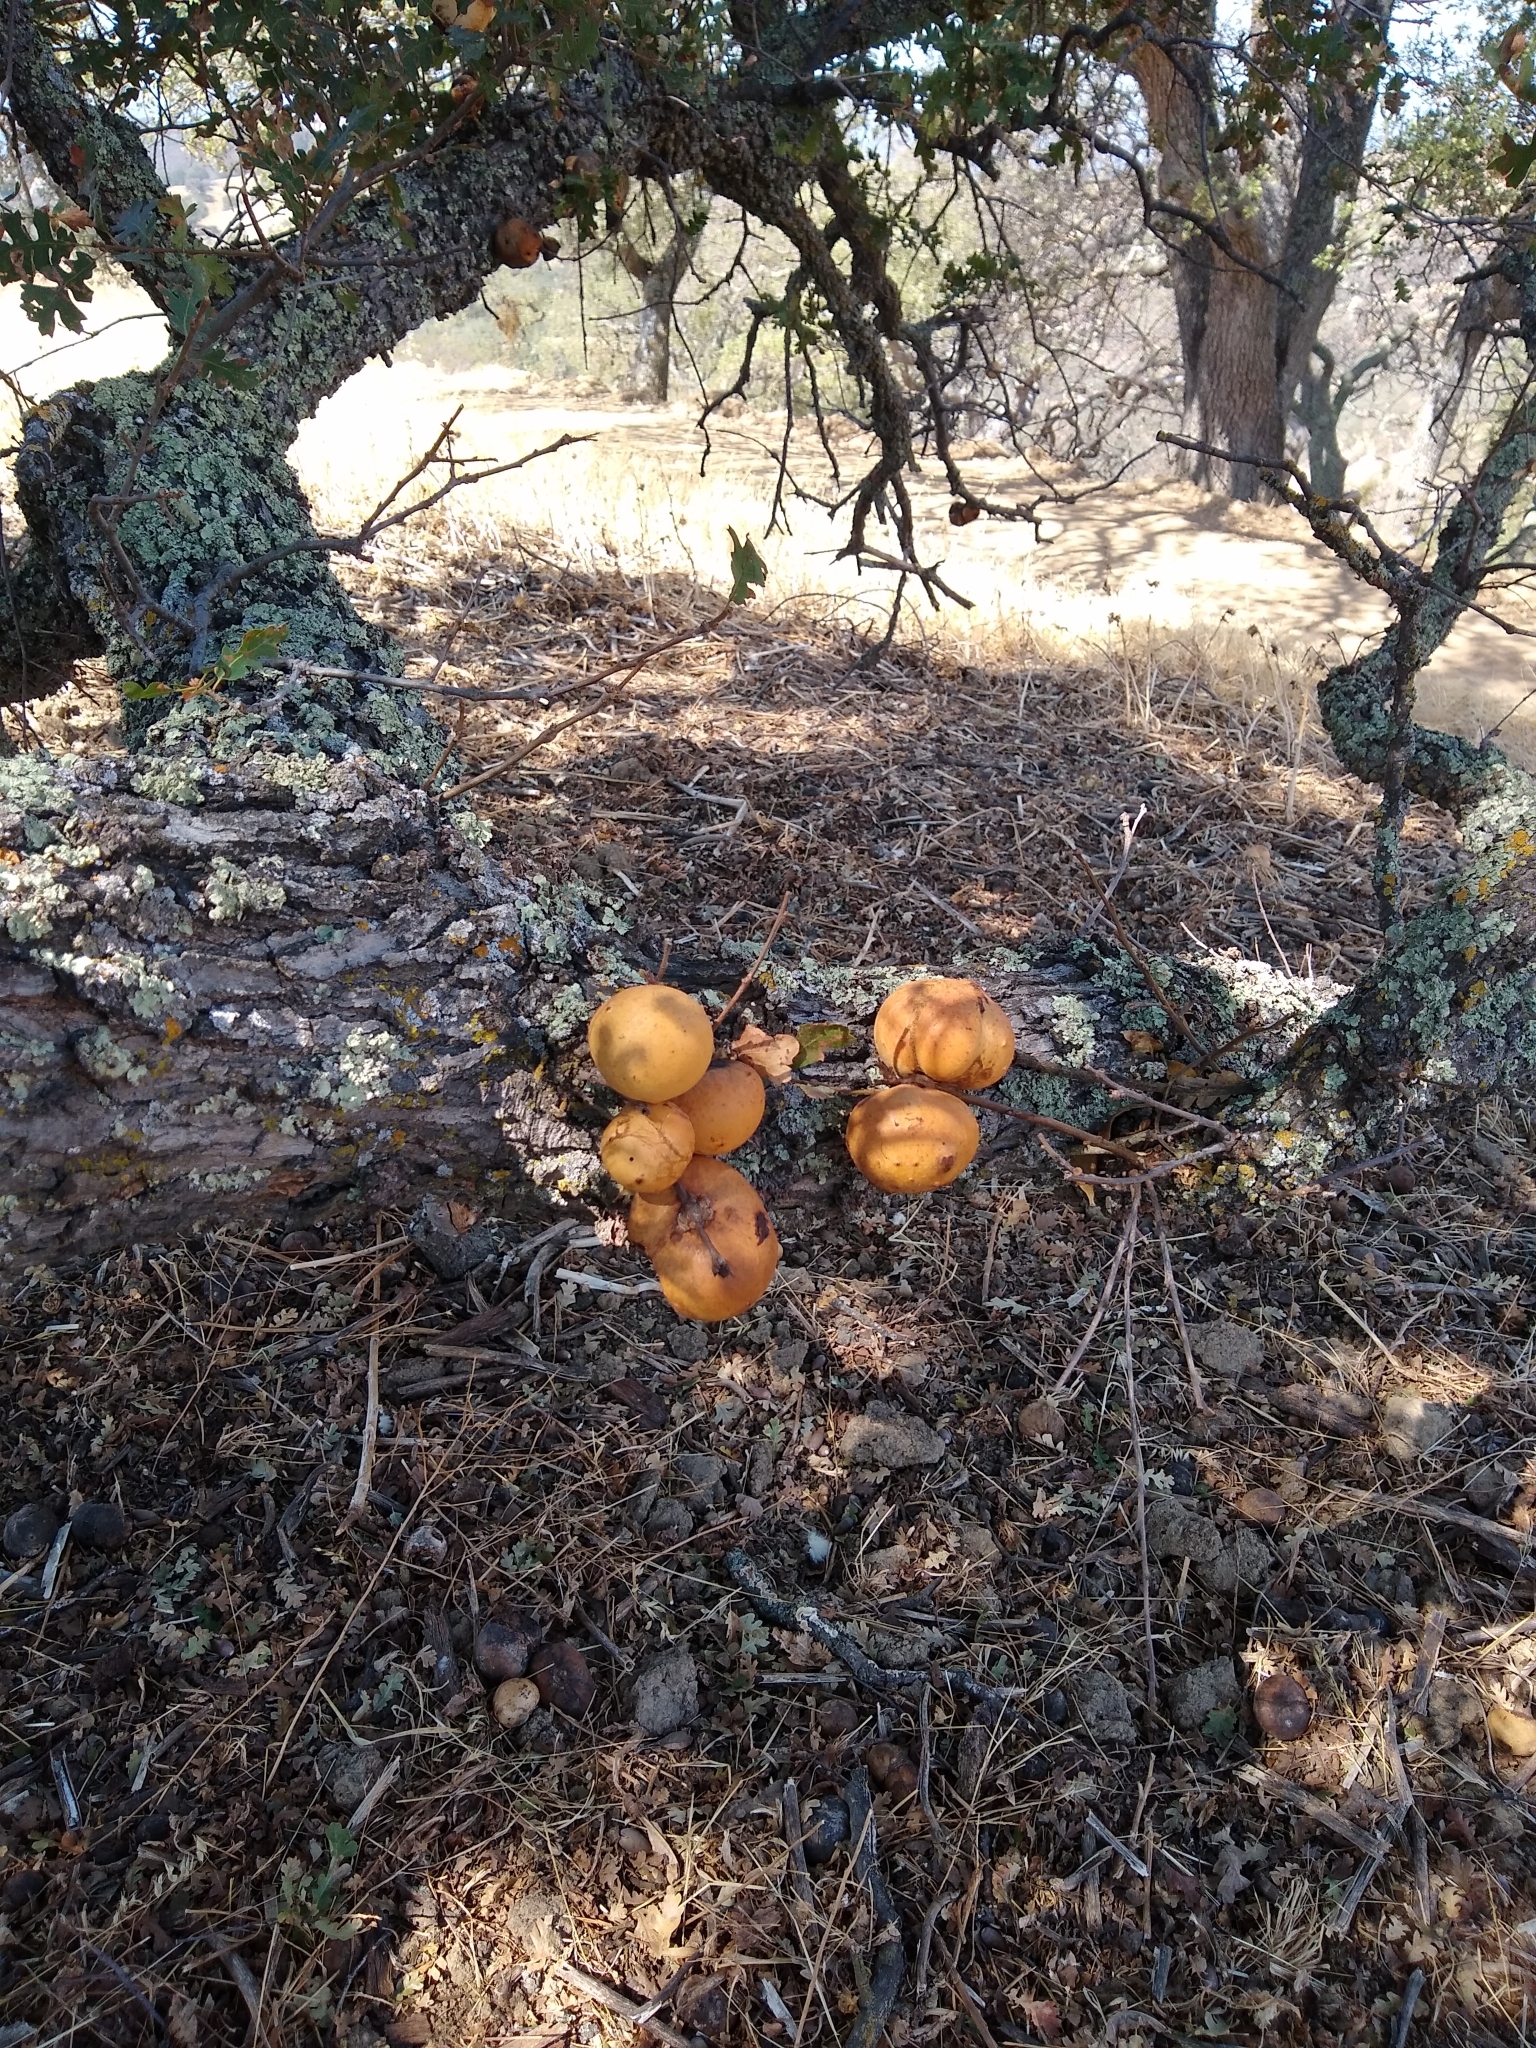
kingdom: Animalia
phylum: Arthropoda
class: Insecta
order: Hymenoptera
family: Cynipidae
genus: Andricus
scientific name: Andricus quercuscalifornicus
